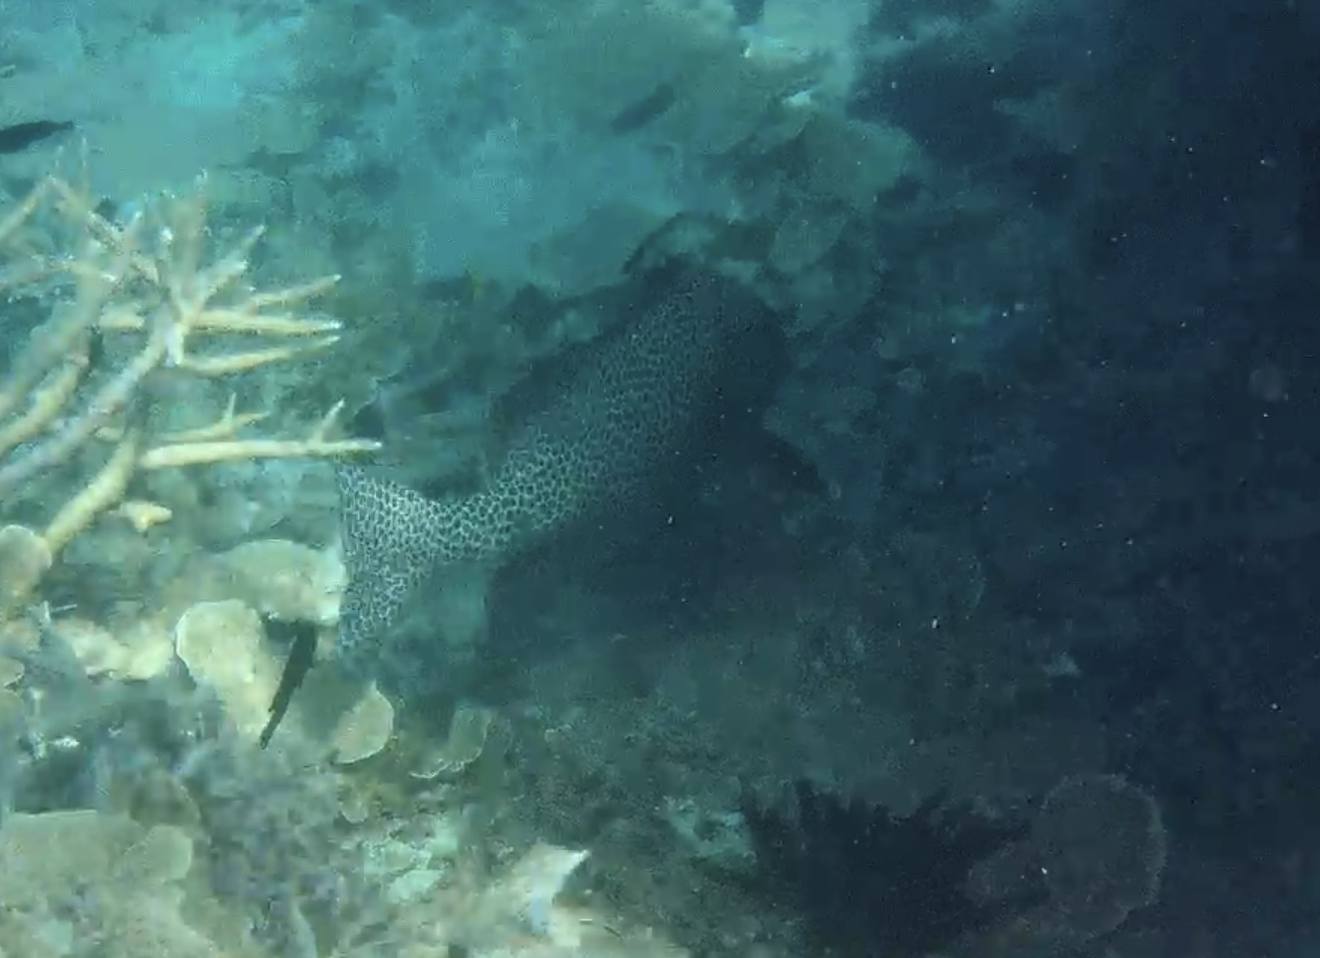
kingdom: Animalia
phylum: Chordata
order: Perciformes
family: Haemulidae
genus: Plectorhinchus
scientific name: Plectorhinchus chaetodonoides
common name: Harlequin sweetlips
